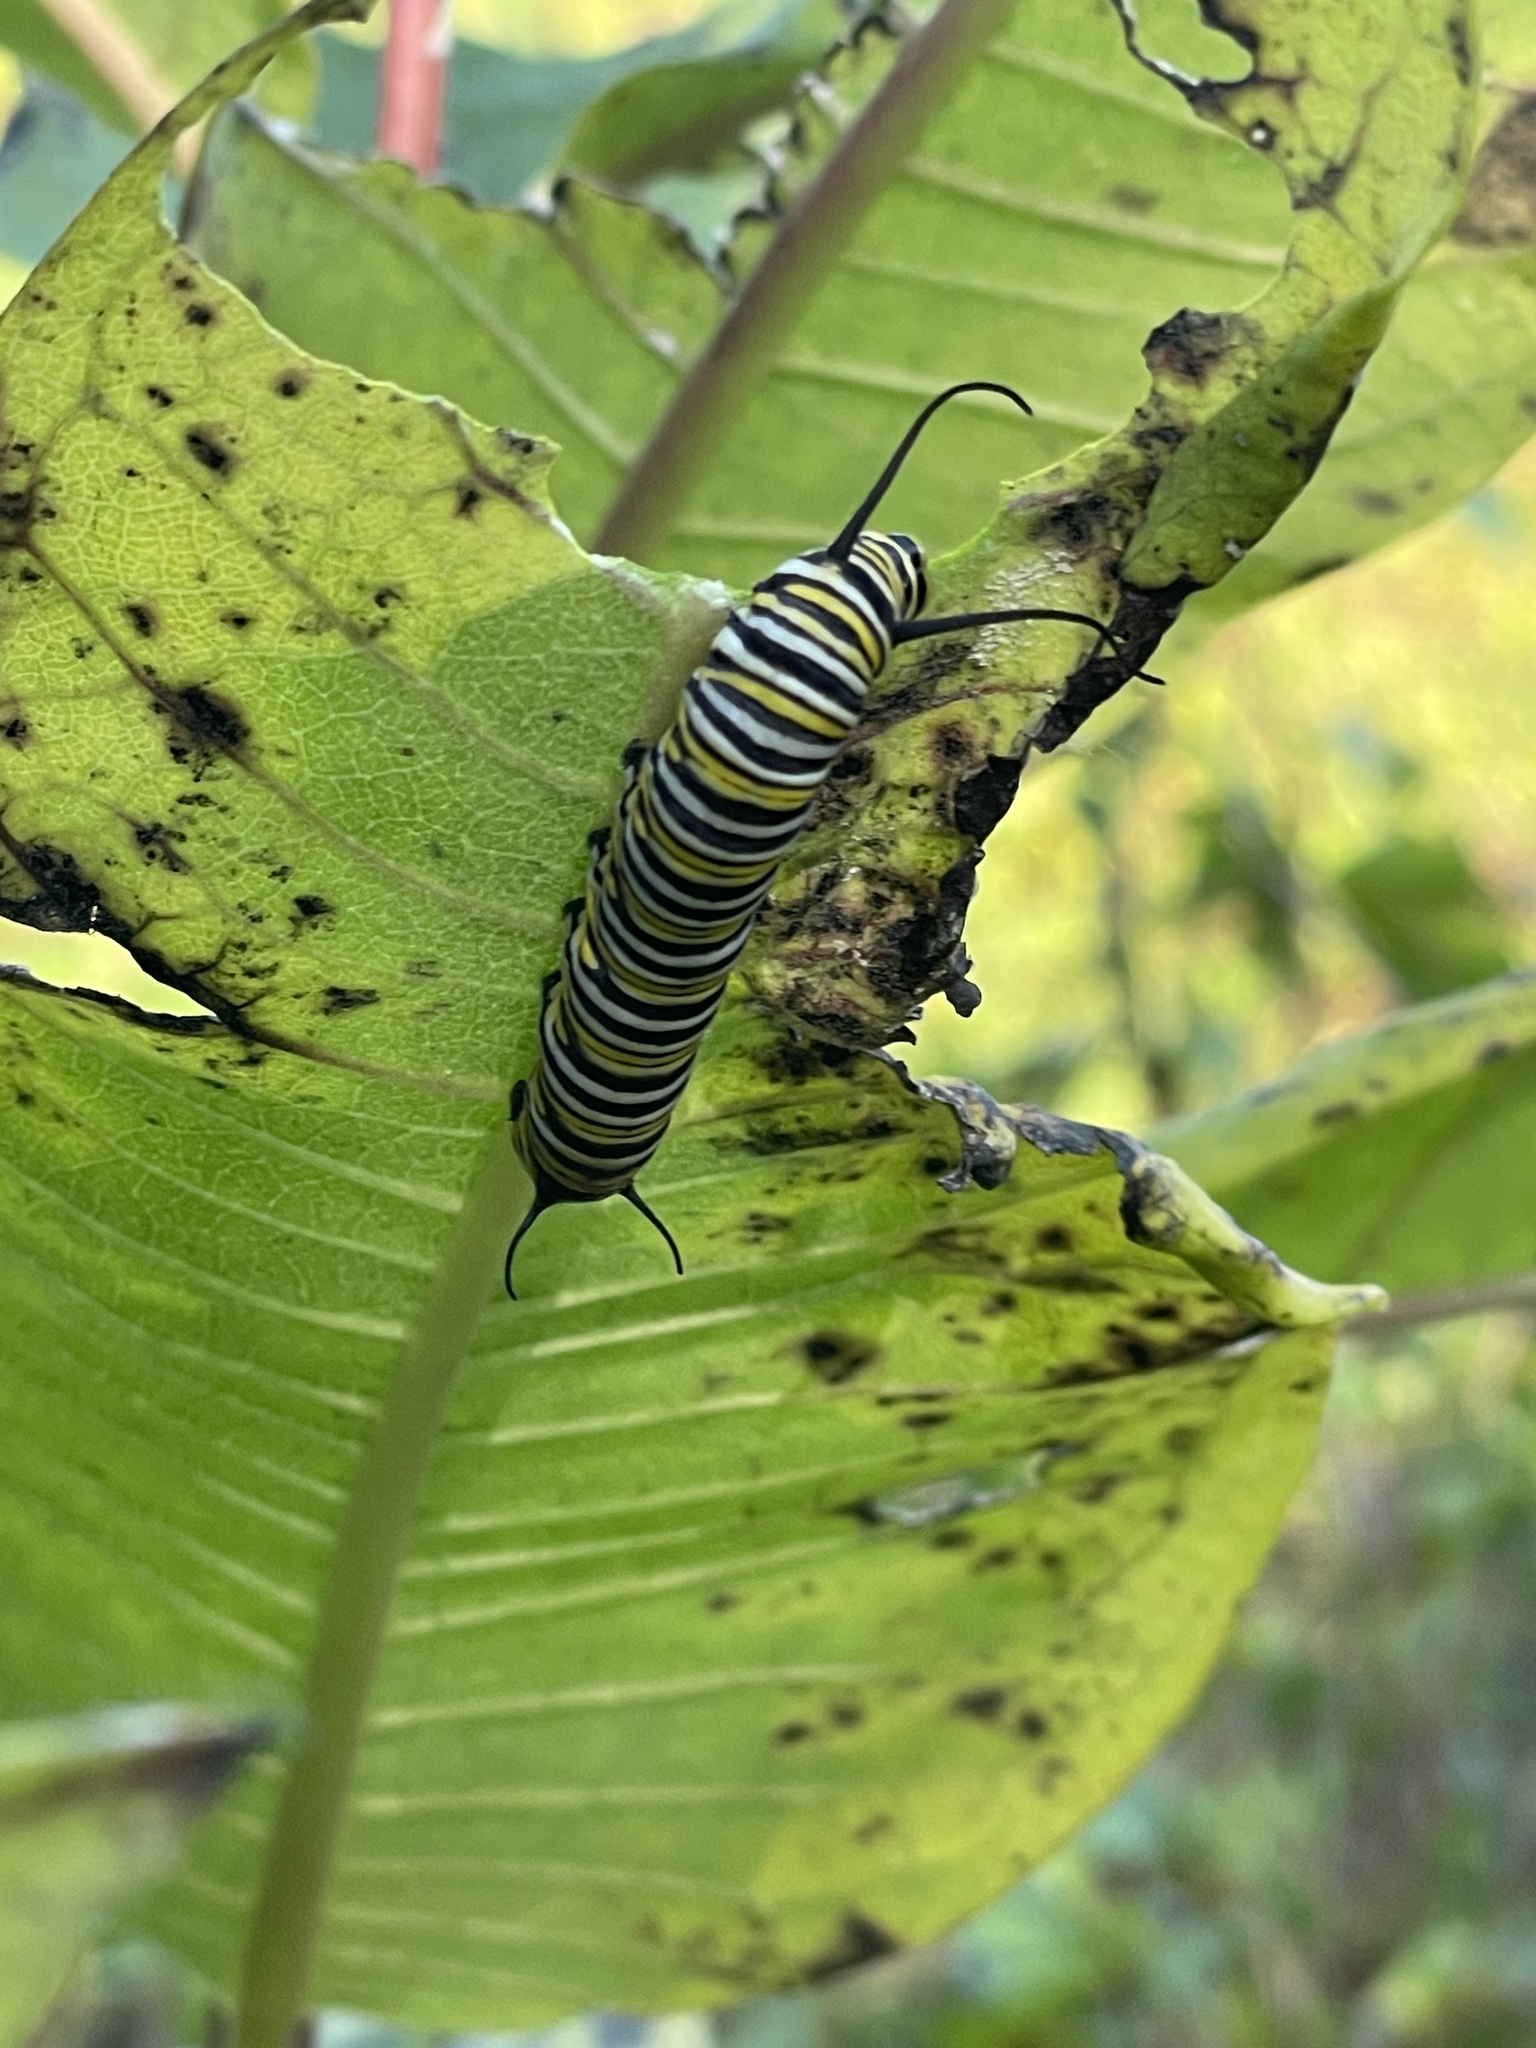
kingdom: Animalia
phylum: Arthropoda
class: Insecta
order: Lepidoptera
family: Nymphalidae
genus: Danaus
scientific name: Danaus plexippus
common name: Monarch
